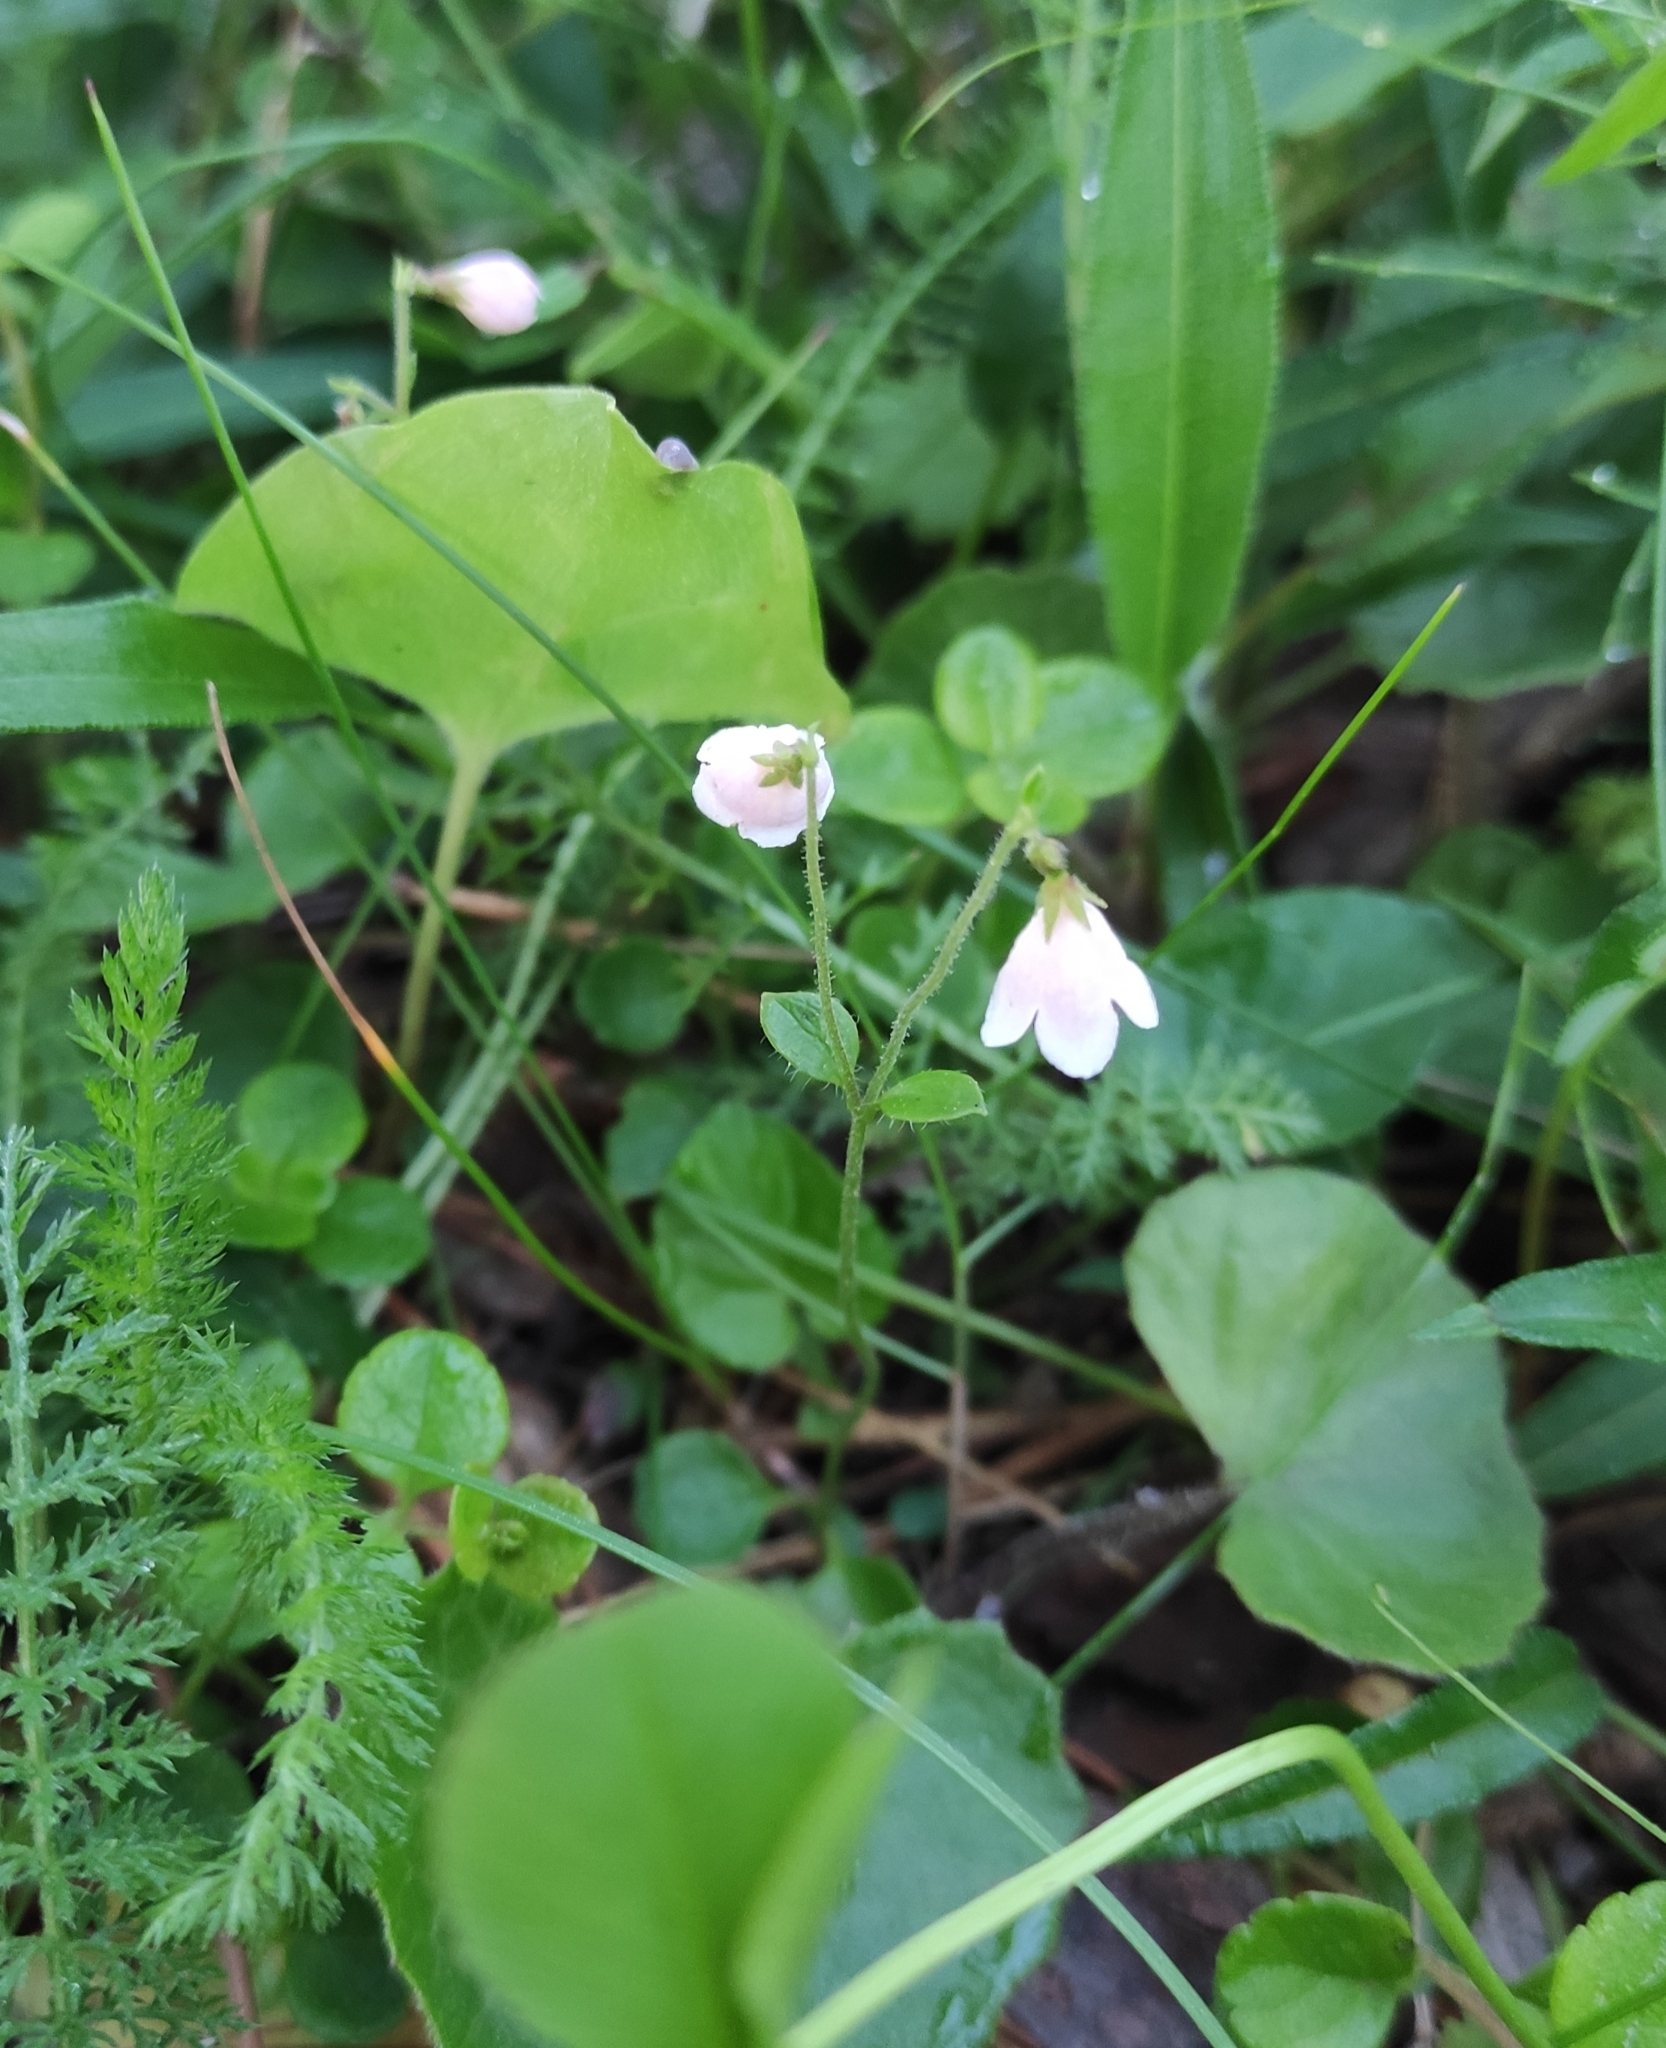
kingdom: Plantae
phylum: Tracheophyta
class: Magnoliopsida
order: Dipsacales
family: Caprifoliaceae
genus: Linnaea
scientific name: Linnaea borealis
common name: Twinflower
